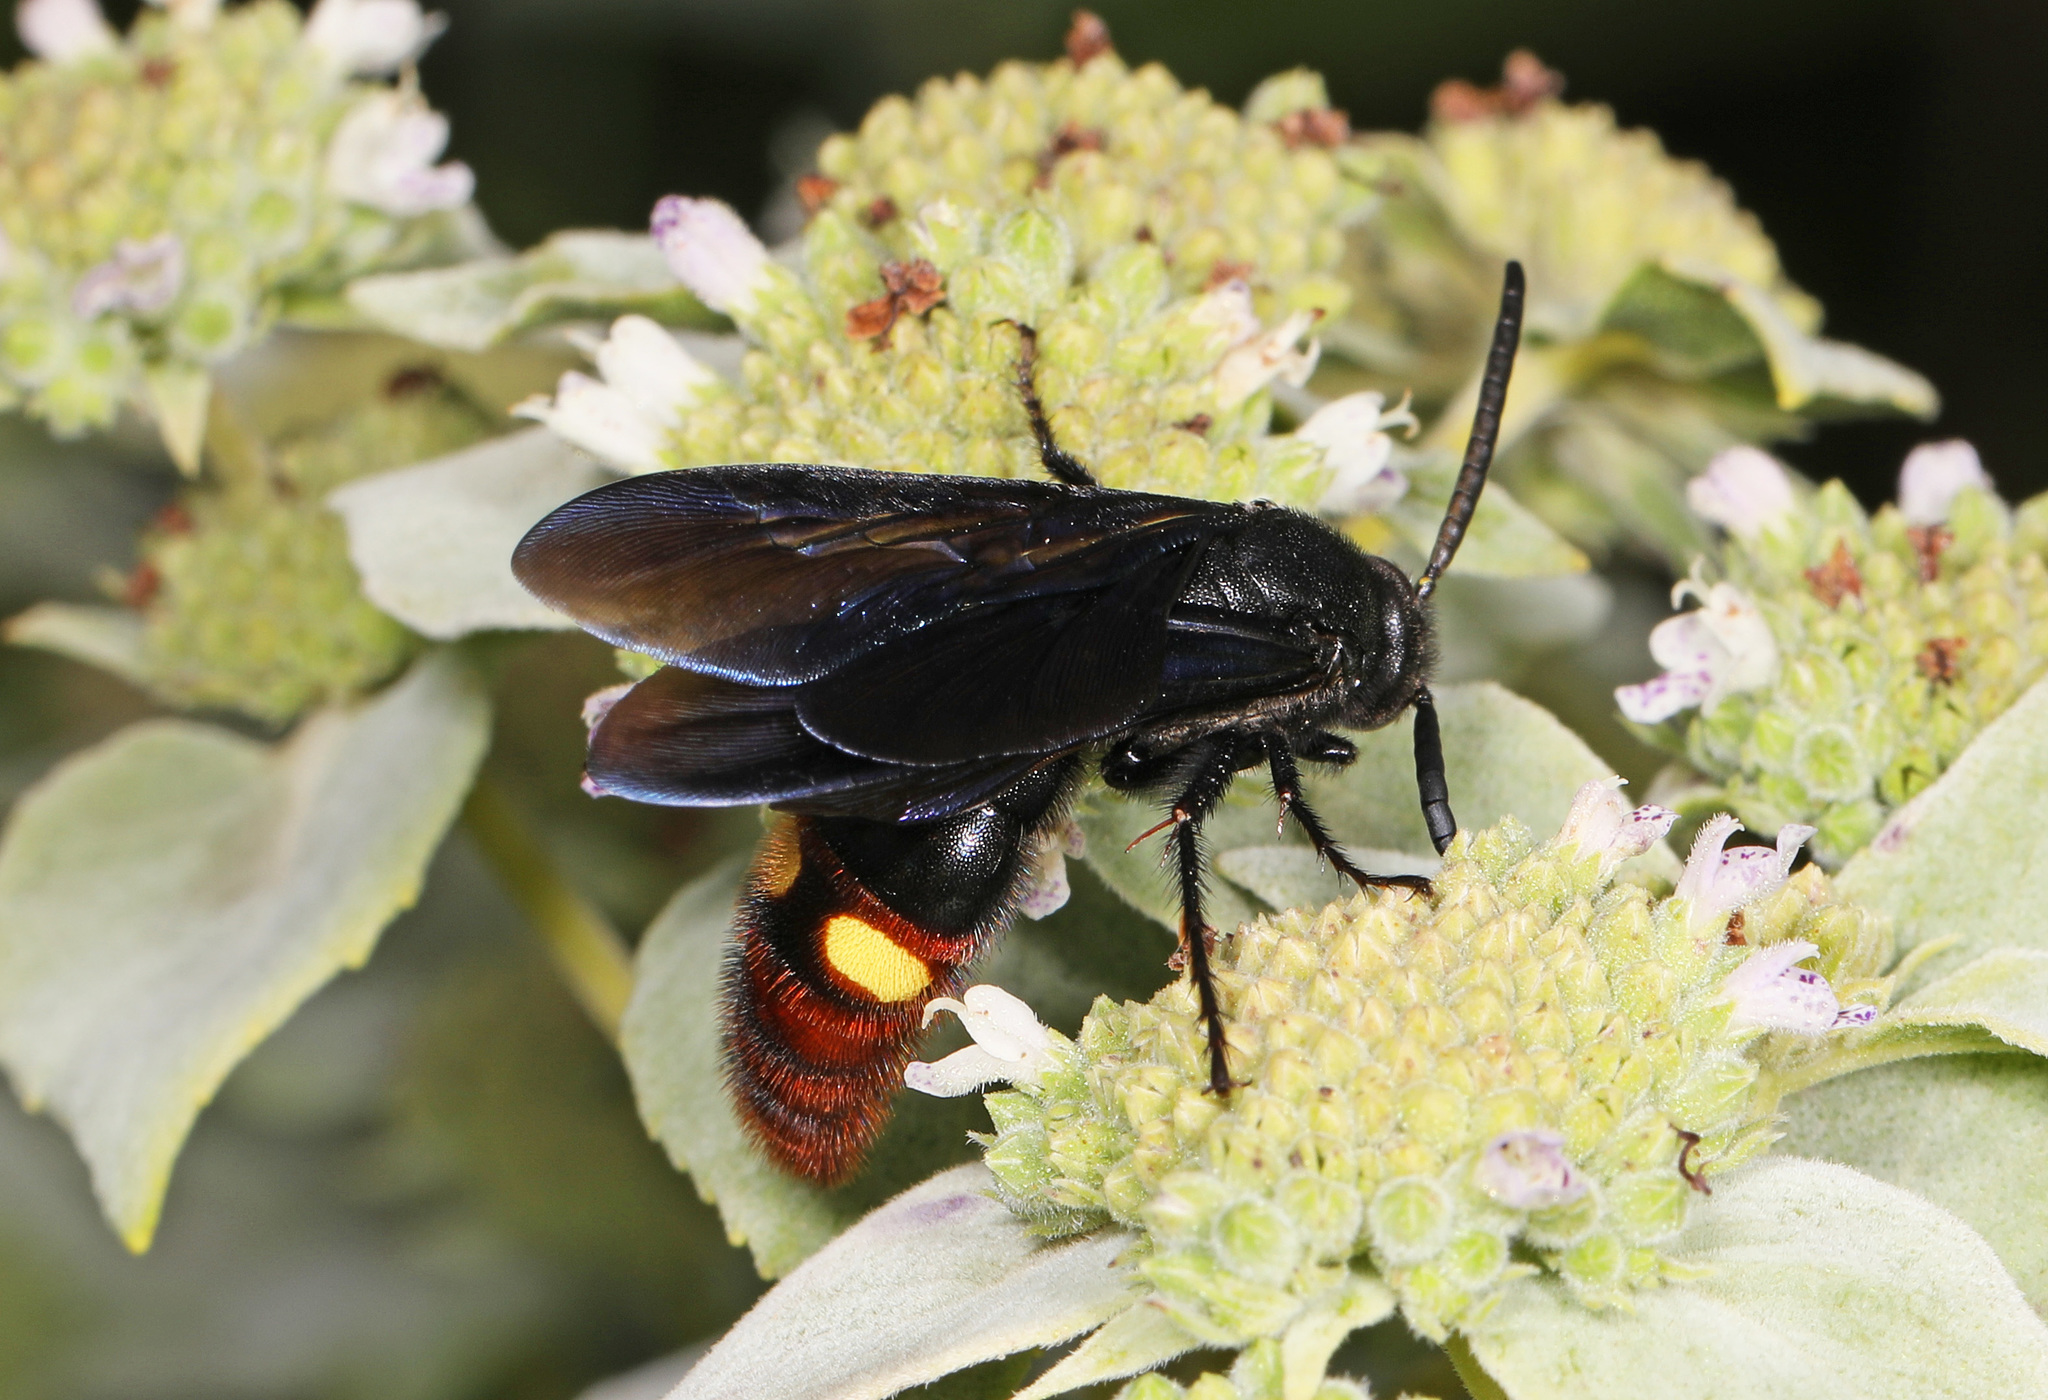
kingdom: Animalia
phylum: Arthropoda
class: Insecta
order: Hymenoptera
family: Scoliidae
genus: Scolia
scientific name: Scolia dubia
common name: Blue-winged scoliid wasp
